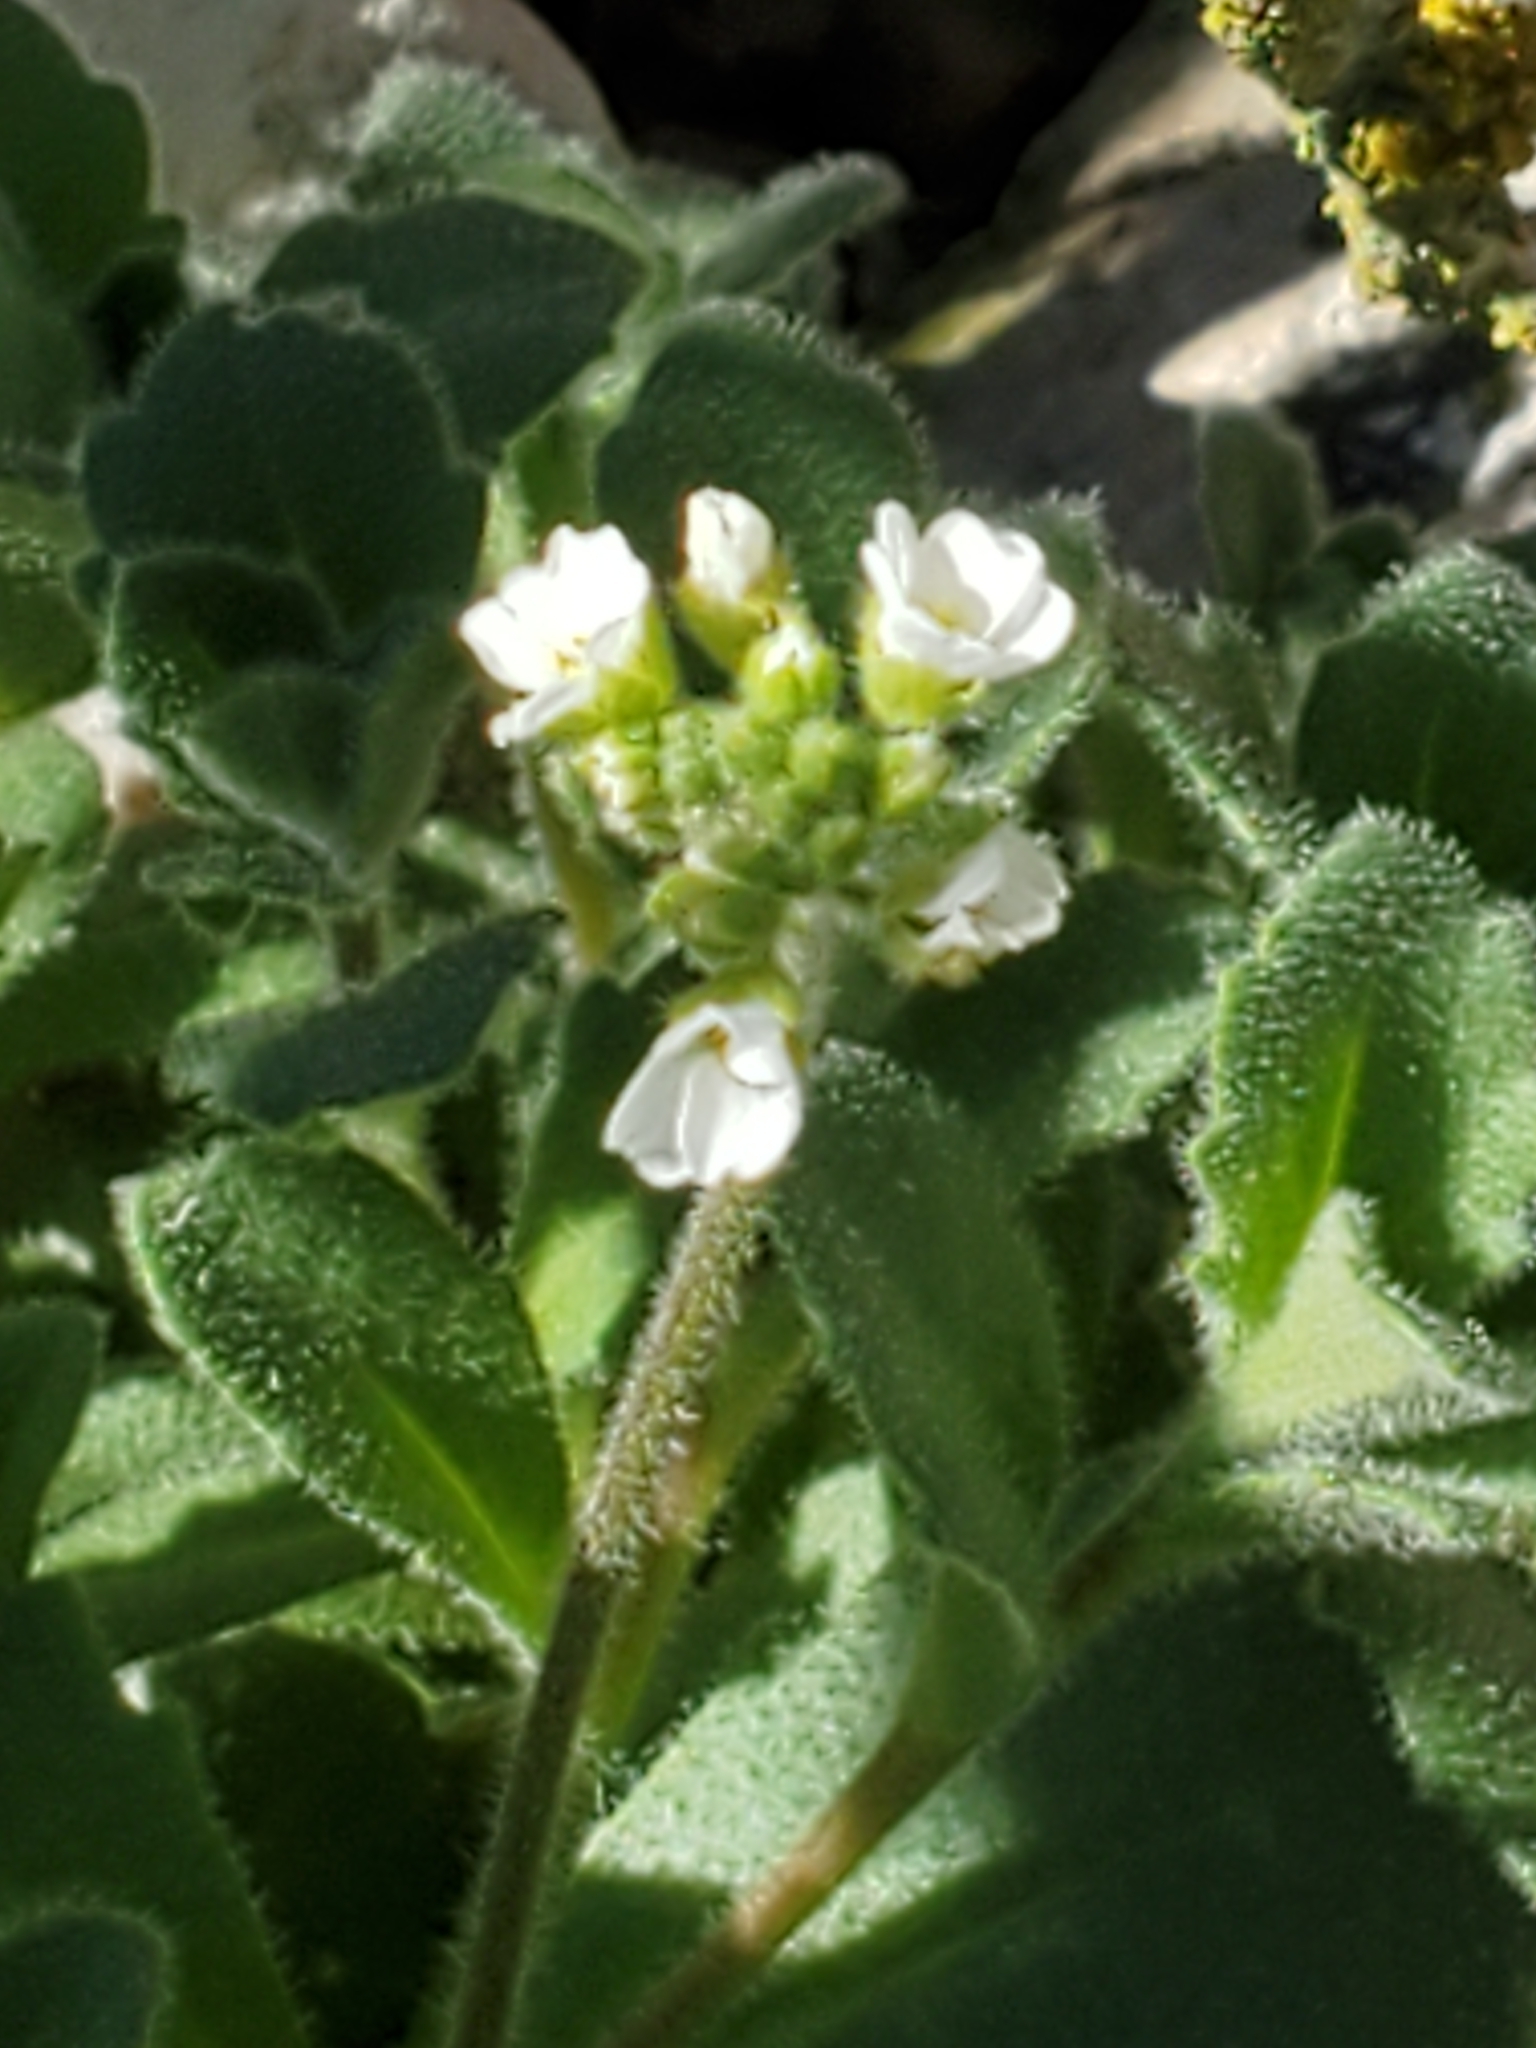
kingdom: Plantae
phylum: Tracheophyta
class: Magnoliopsida
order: Brassicales
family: Brassicaceae
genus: Tomostima
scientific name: Tomostima cuneifolia
